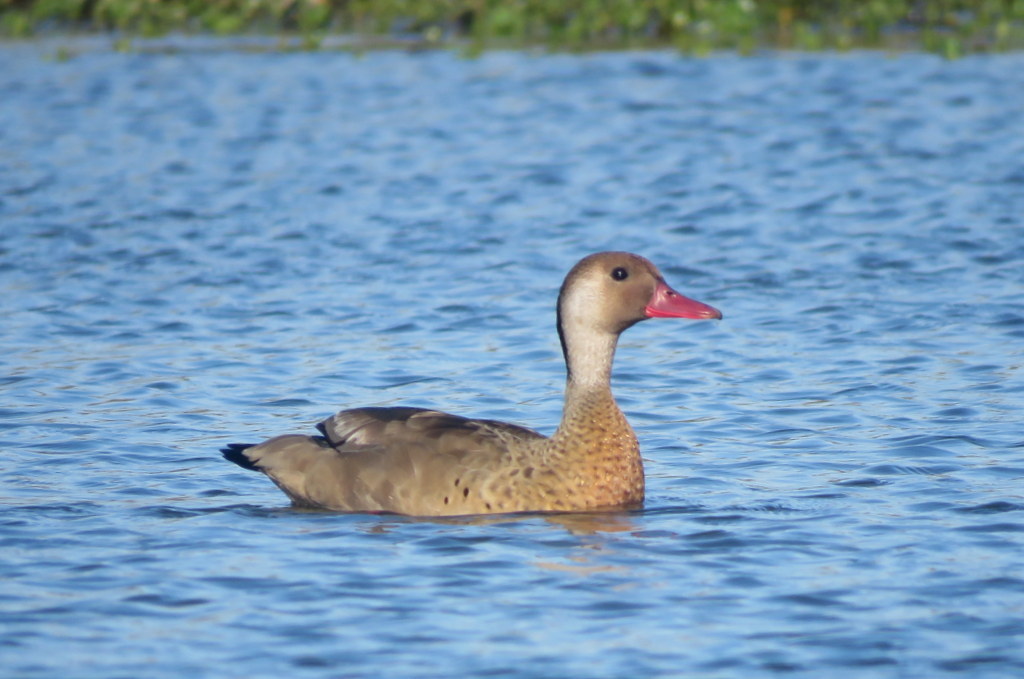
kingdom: Animalia
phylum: Chordata
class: Aves
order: Anseriformes
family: Anatidae
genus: Amazonetta
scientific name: Amazonetta brasiliensis
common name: Brazilian teal
